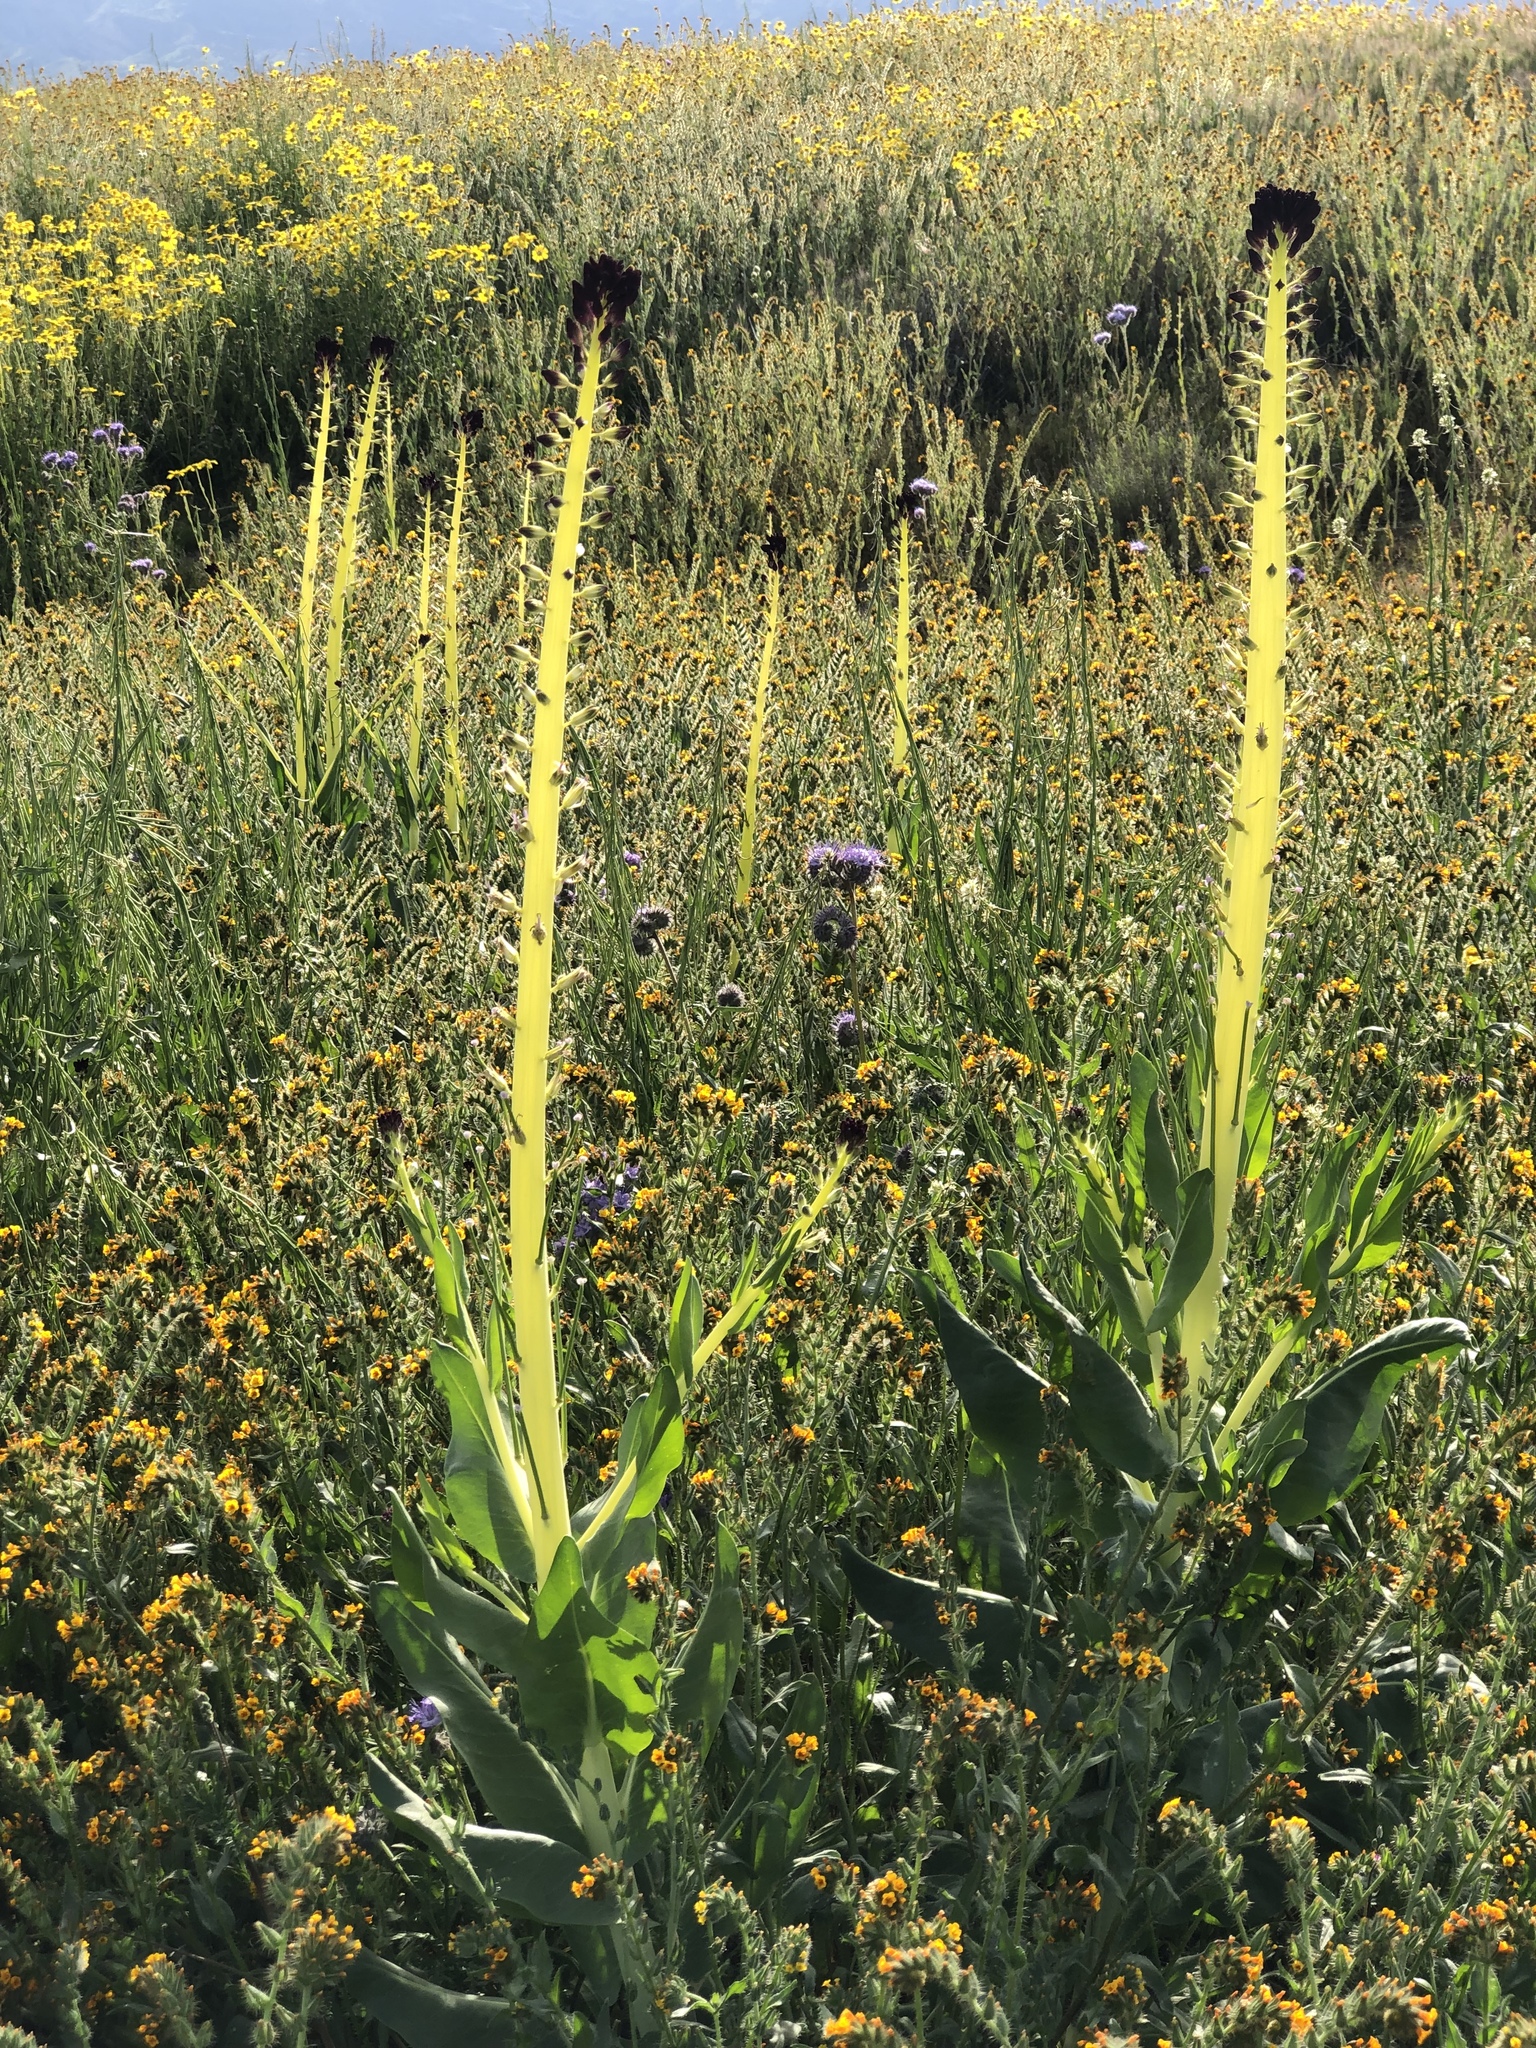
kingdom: Plantae
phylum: Tracheophyta
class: Magnoliopsida
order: Brassicales
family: Brassicaceae
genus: Streptanthus
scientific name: Streptanthus inflatus
